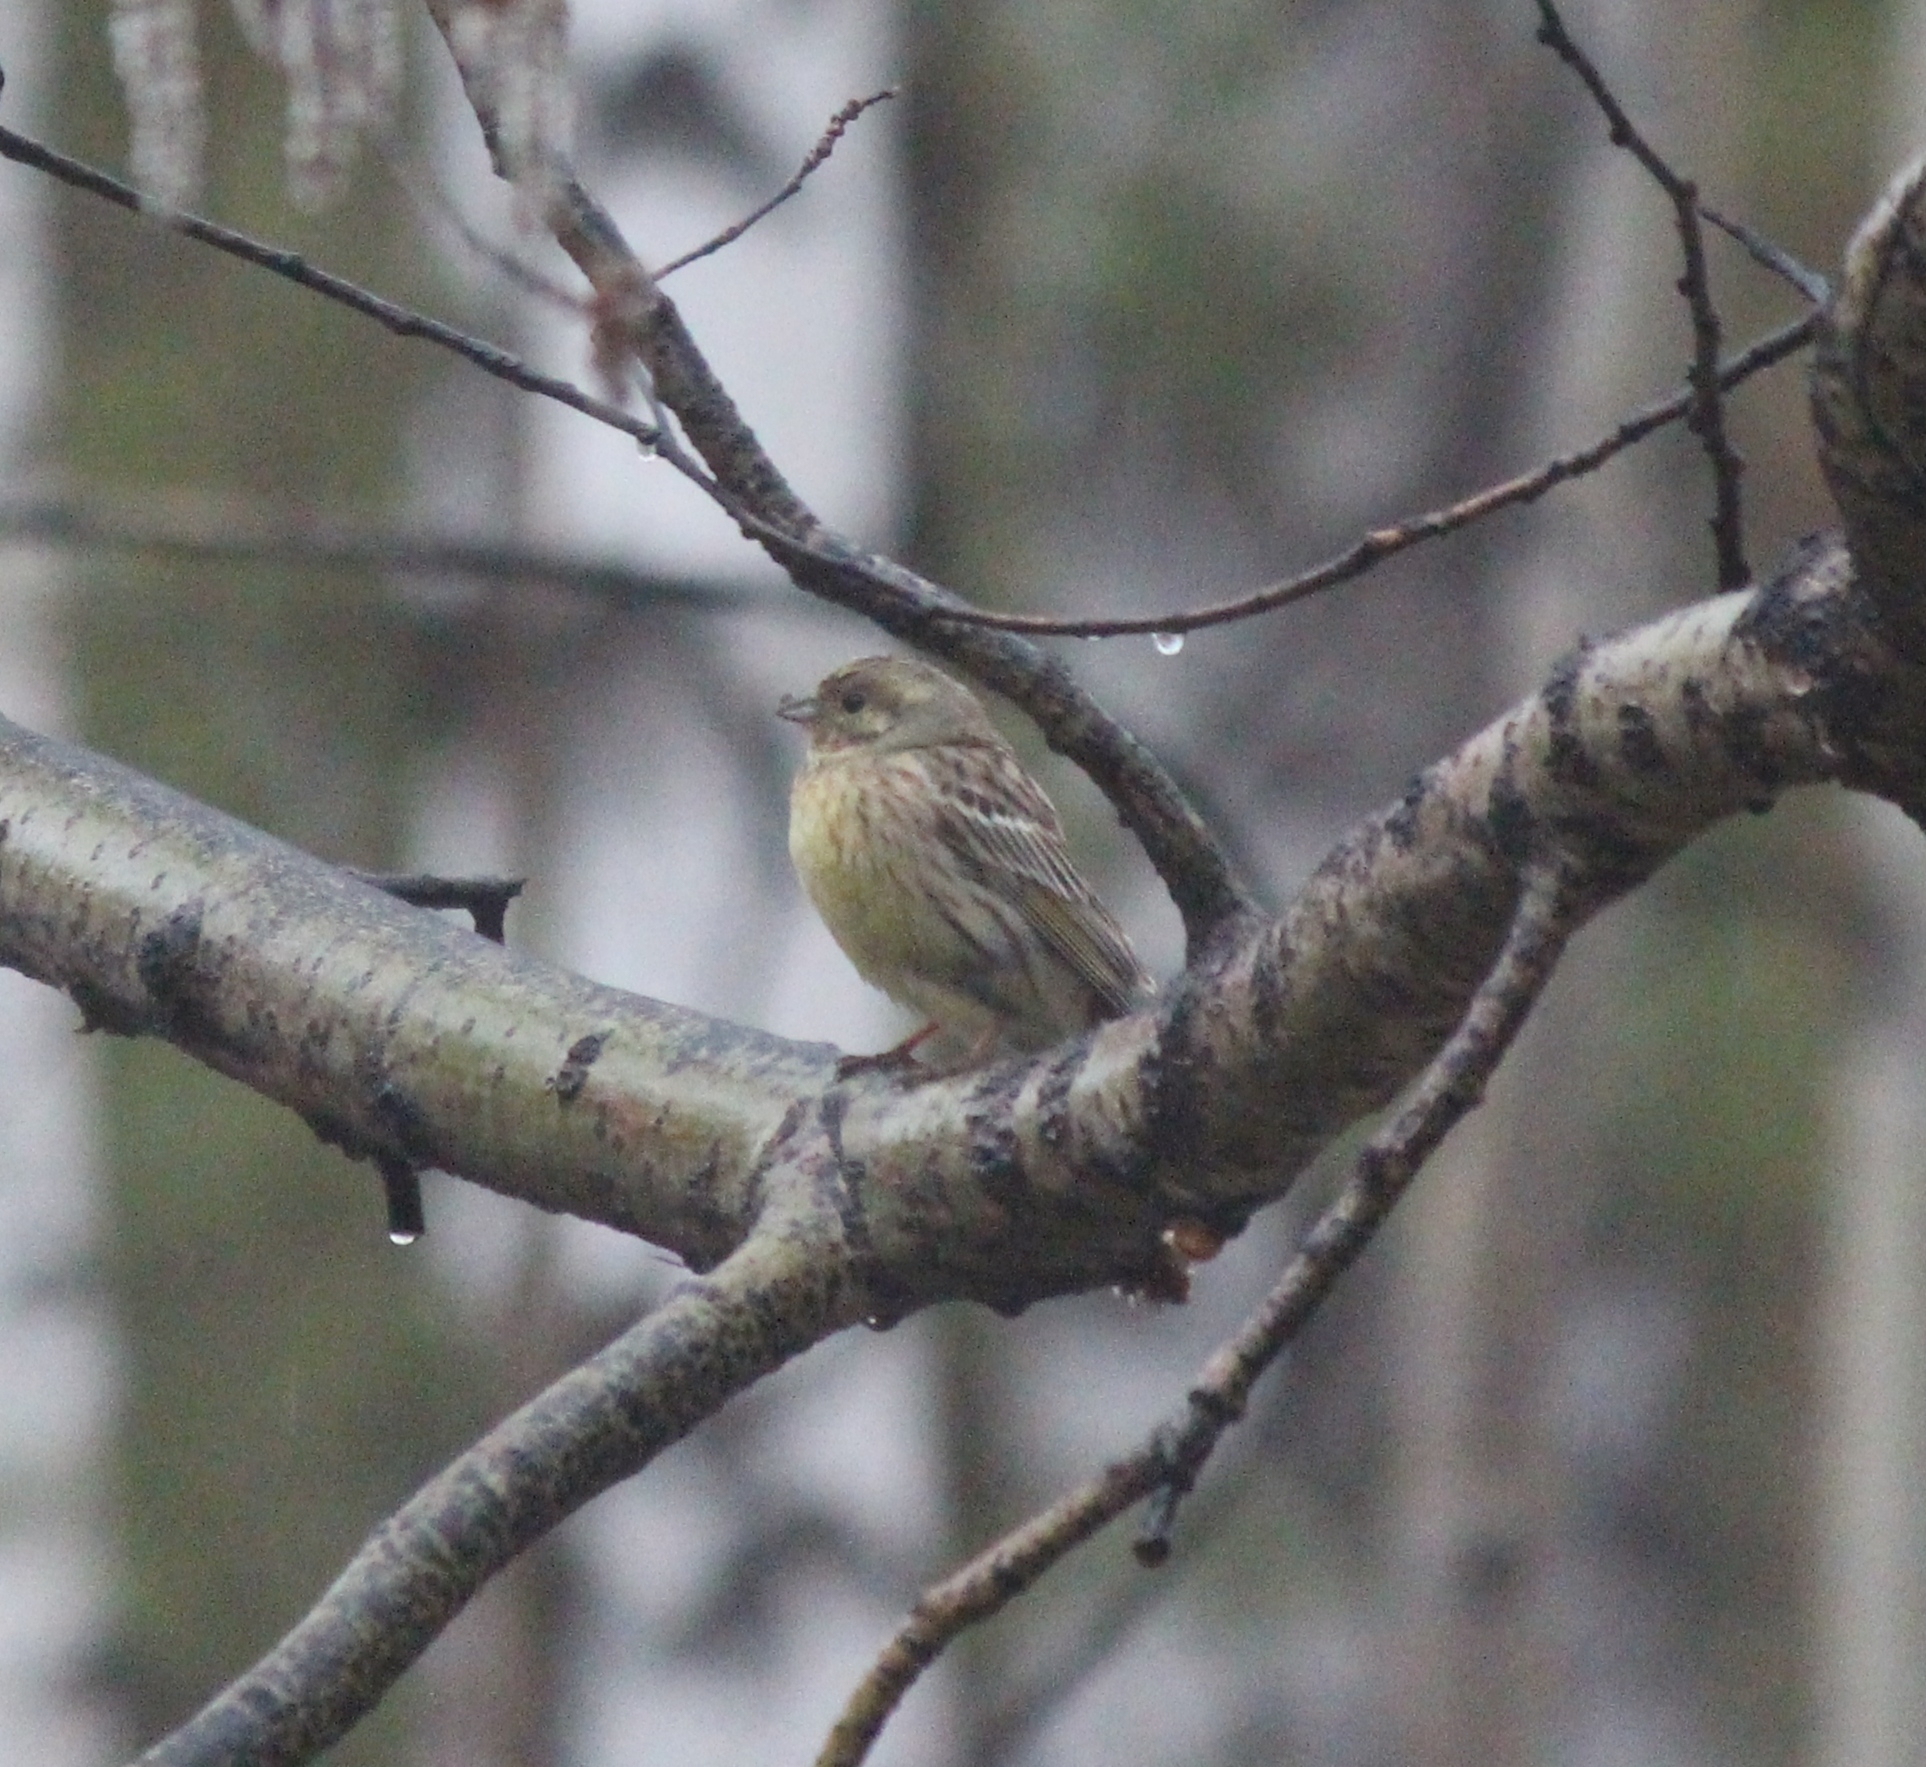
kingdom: Animalia
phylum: Chordata
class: Aves
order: Passeriformes
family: Emberizidae
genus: Emberiza
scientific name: Emberiza
